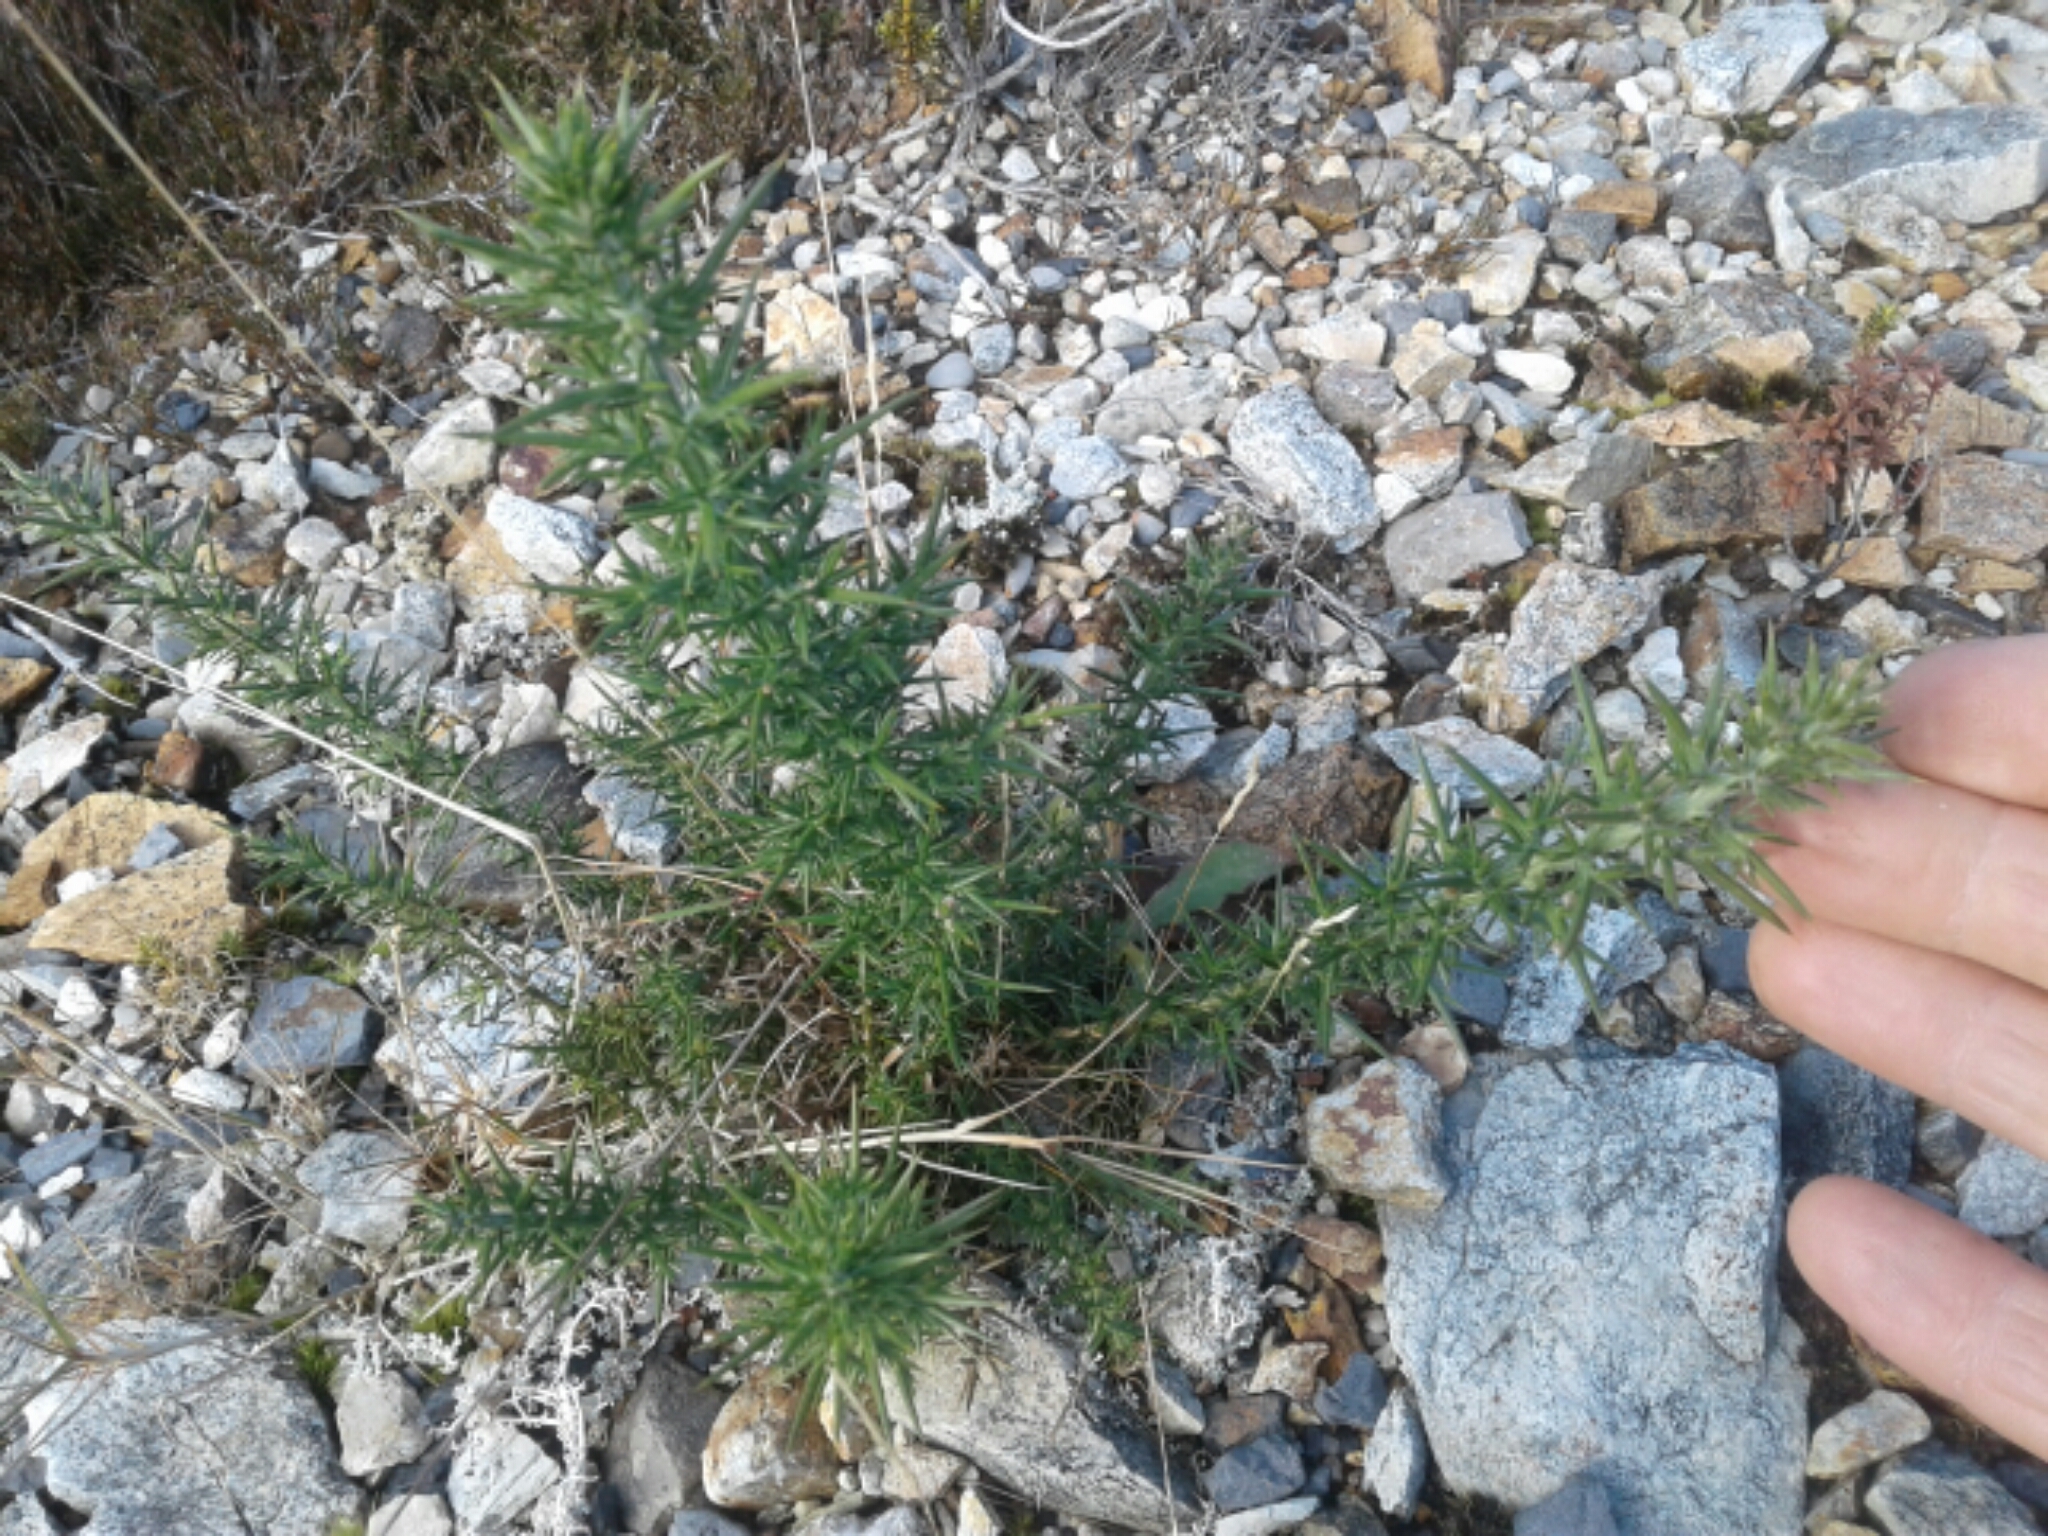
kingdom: Plantae
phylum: Tracheophyta
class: Magnoliopsida
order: Fabales
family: Fabaceae
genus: Ulex
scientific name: Ulex europaeus
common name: Common gorse
